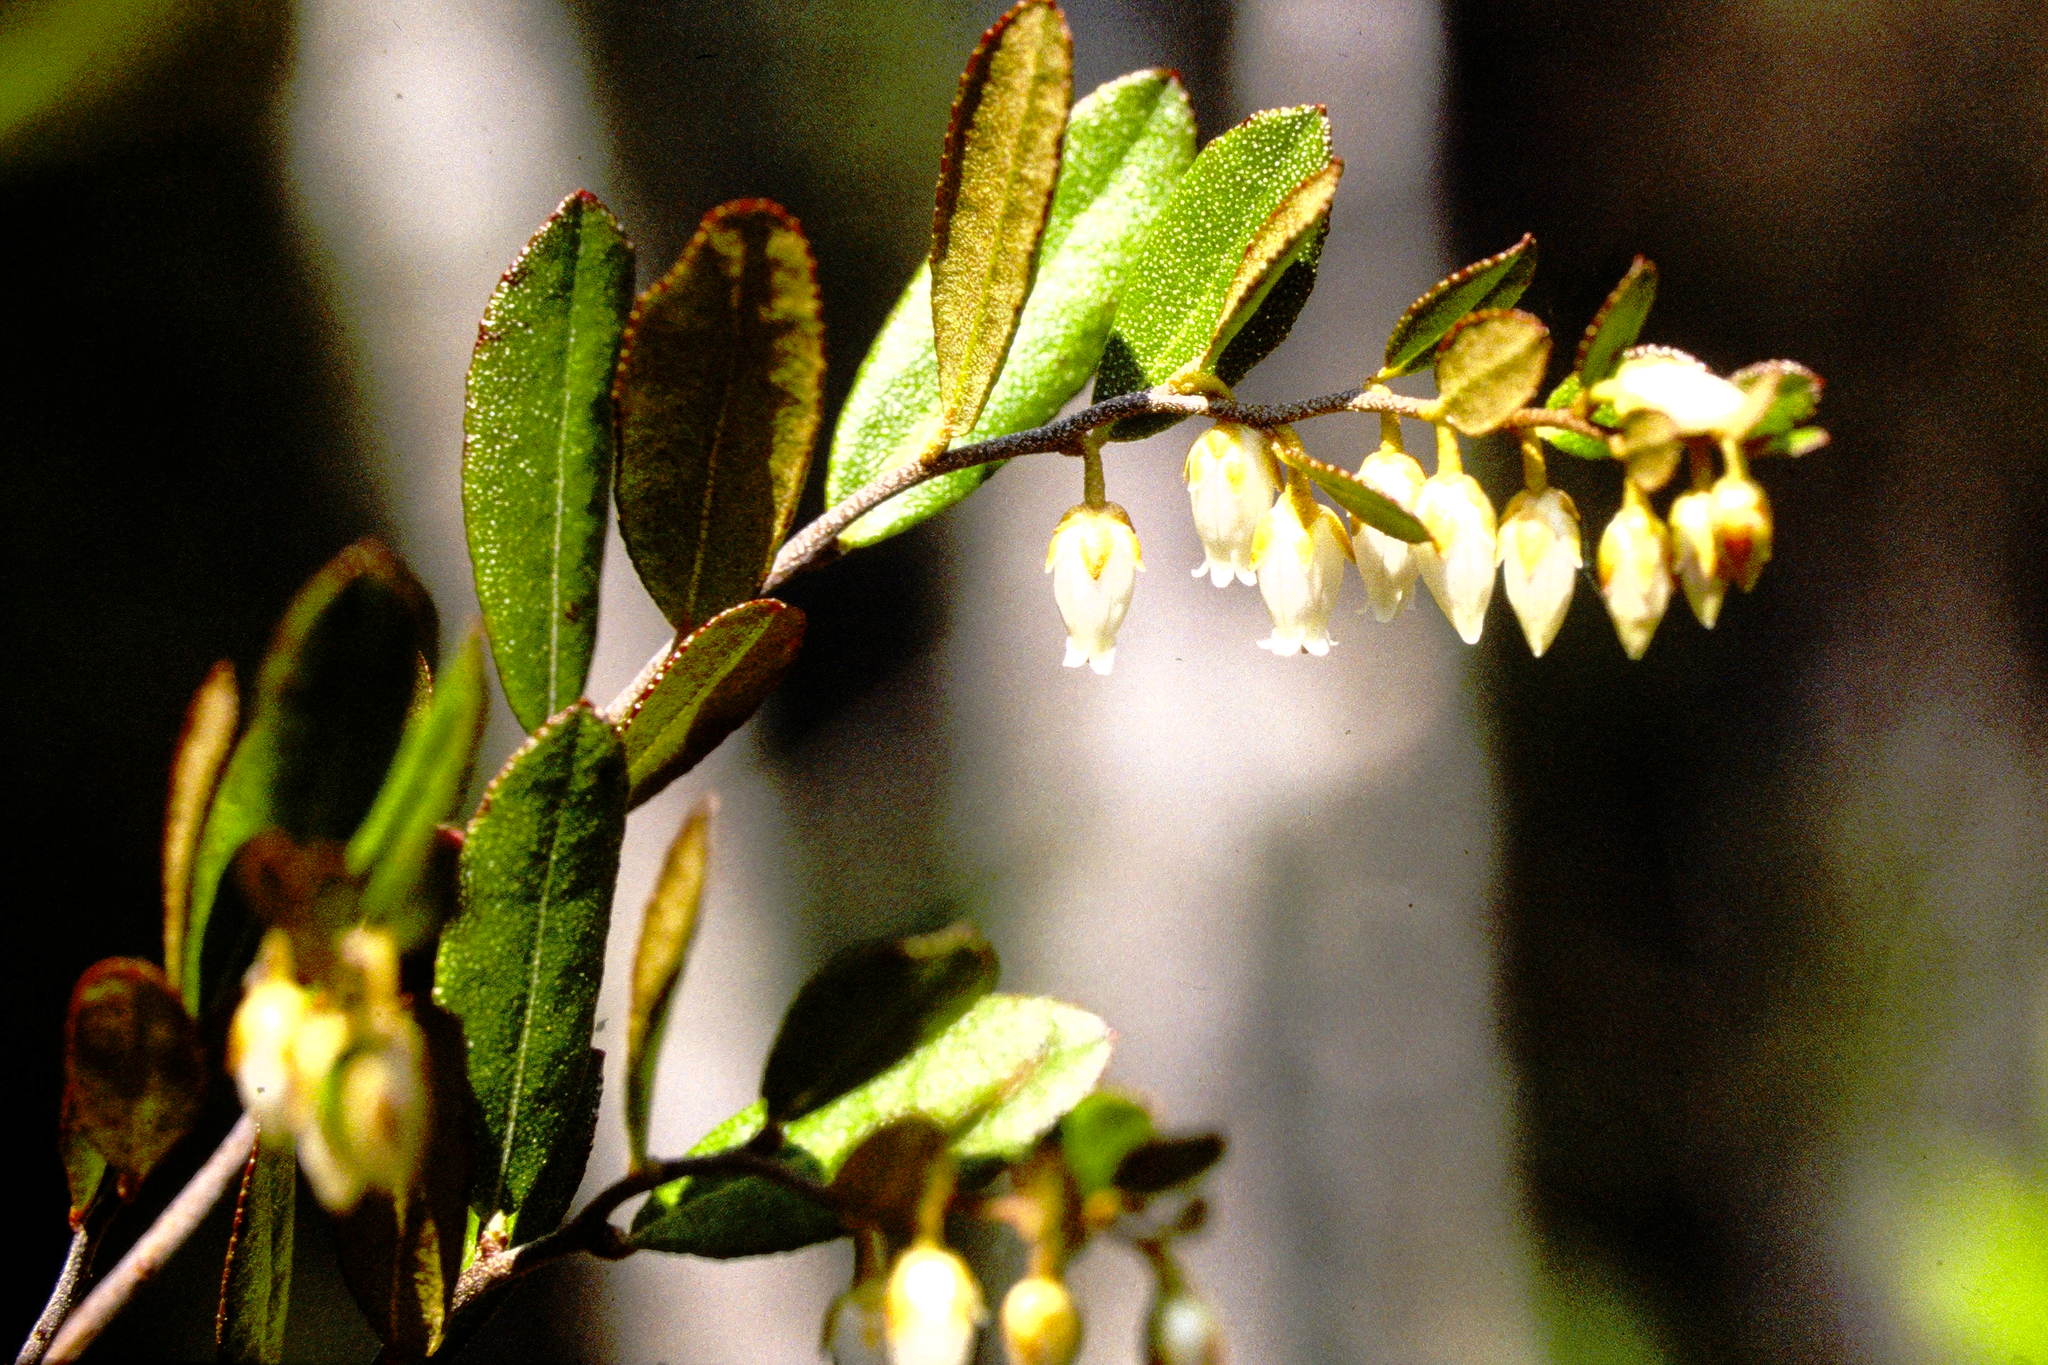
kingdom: Plantae
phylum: Tracheophyta
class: Magnoliopsida
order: Ericales
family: Ericaceae
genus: Chamaedaphne
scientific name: Chamaedaphne calyculata
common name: Leatherleaf
